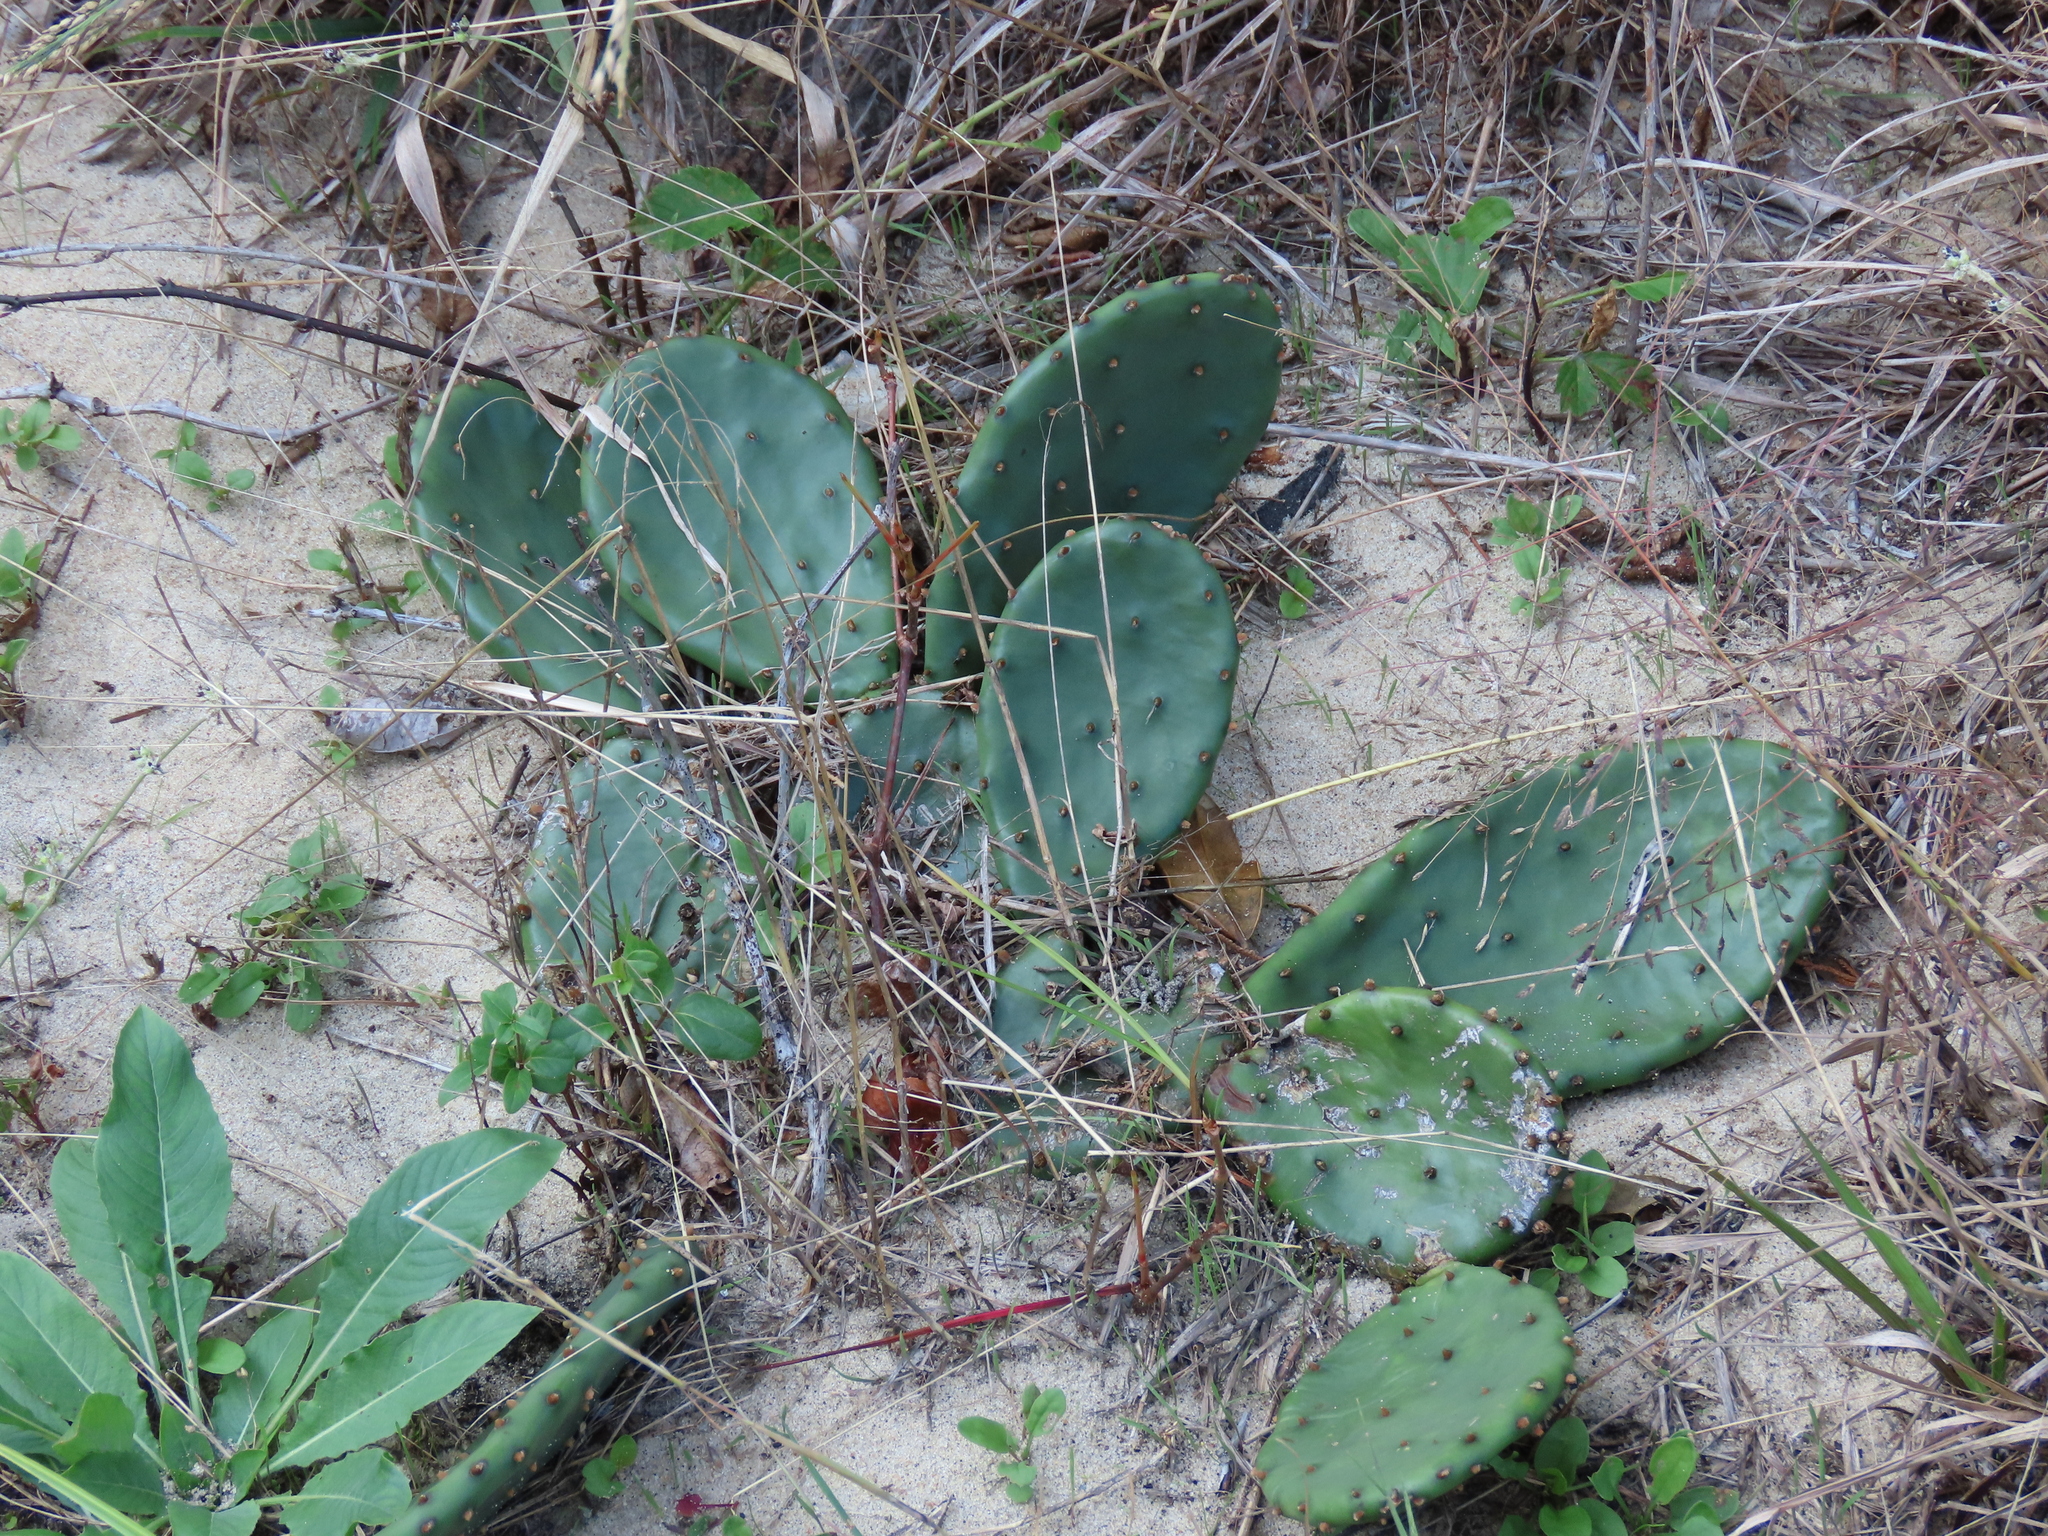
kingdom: Plantae
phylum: Tracheophyta
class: Magnoliopsida
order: Caryophyllales
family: Cactaceae
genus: Opuntia
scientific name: Opuntia humifusa
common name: Eastern prickly-pear
